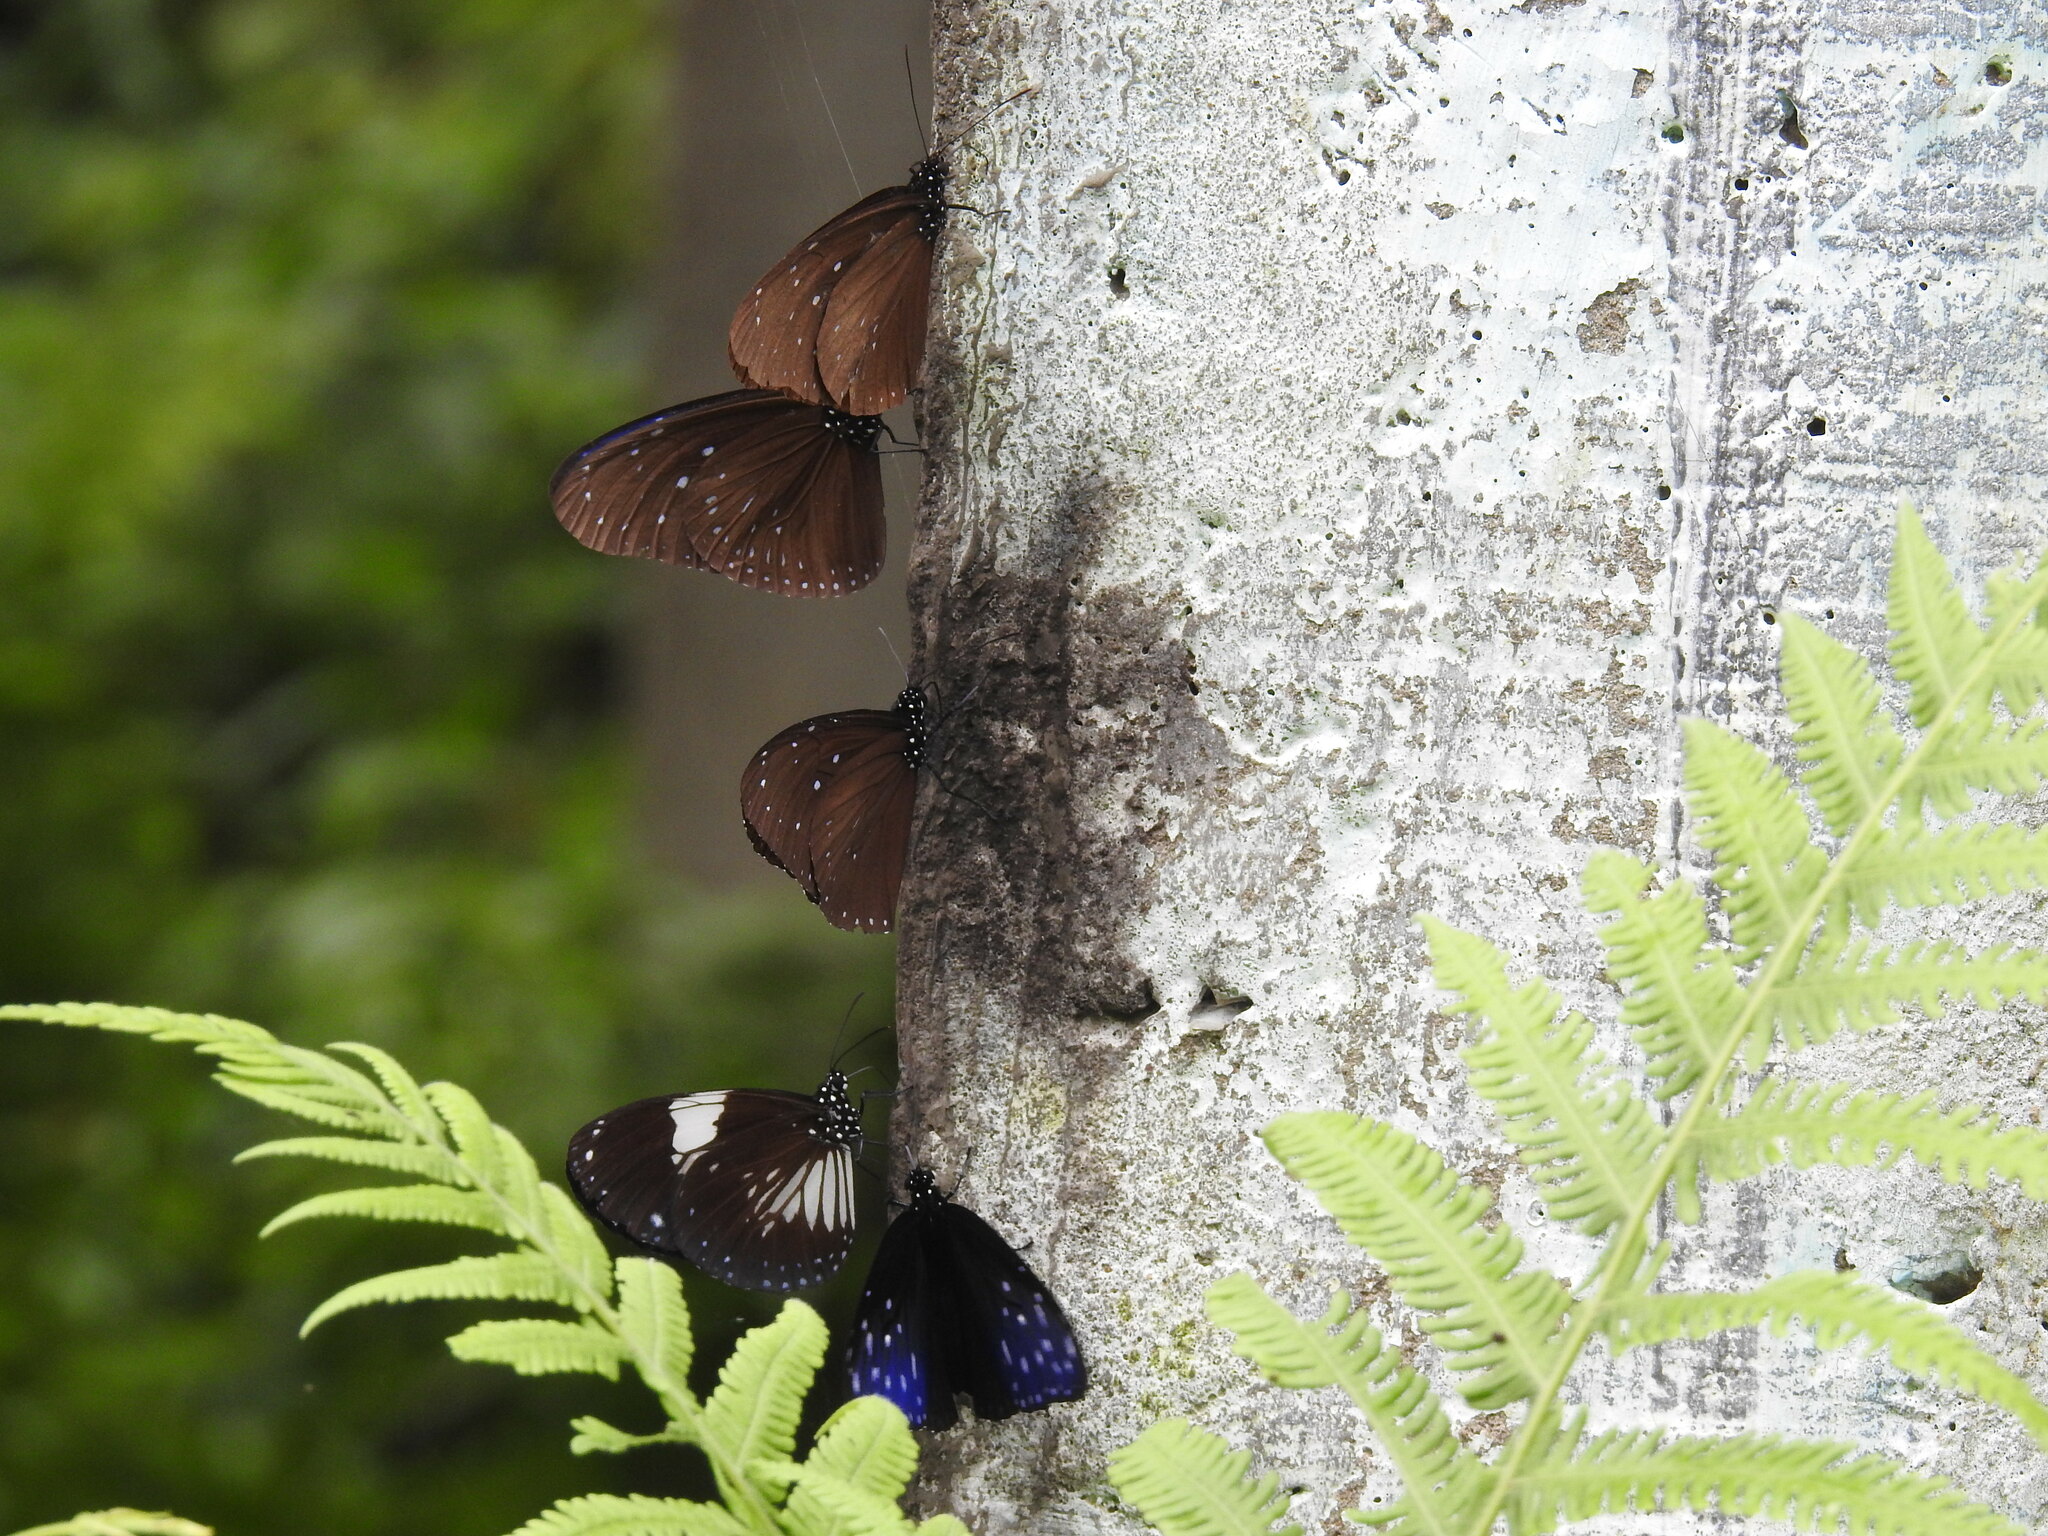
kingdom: Animalia
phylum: Arthropoda
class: Insecta
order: Lepidoptera
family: Nymphalidae
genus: Euploea
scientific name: Euploea radamanthus
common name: Magpie crow butterfly
